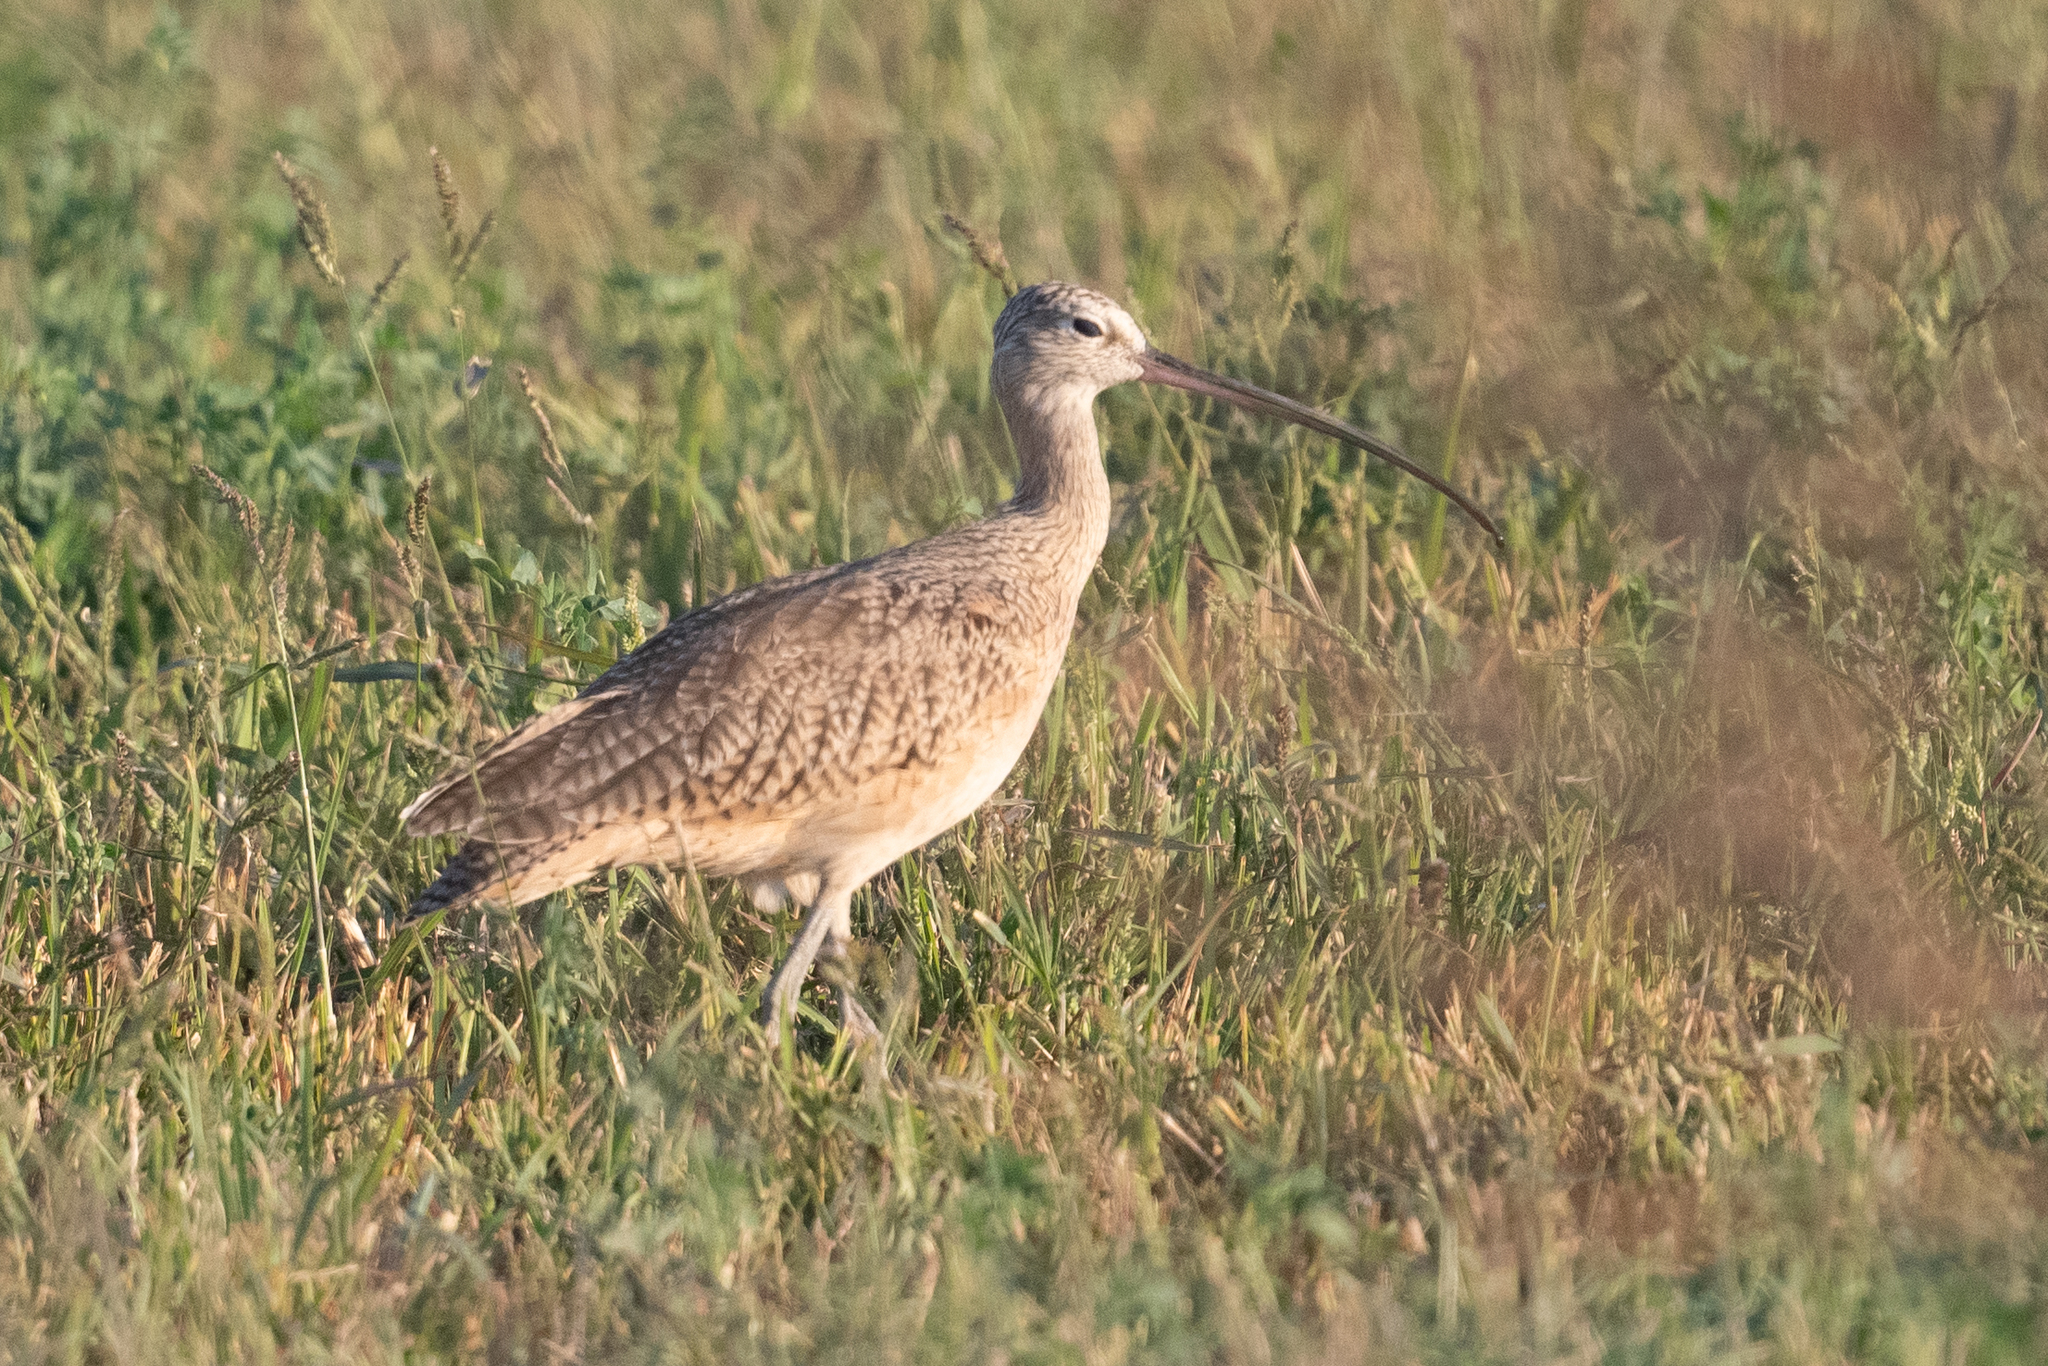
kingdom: Animalia
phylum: Chordata
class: Aves
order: Charadriiformes
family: Scolopacidae
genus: Numenius
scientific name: Numenius americanus
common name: Long-billed curlew
